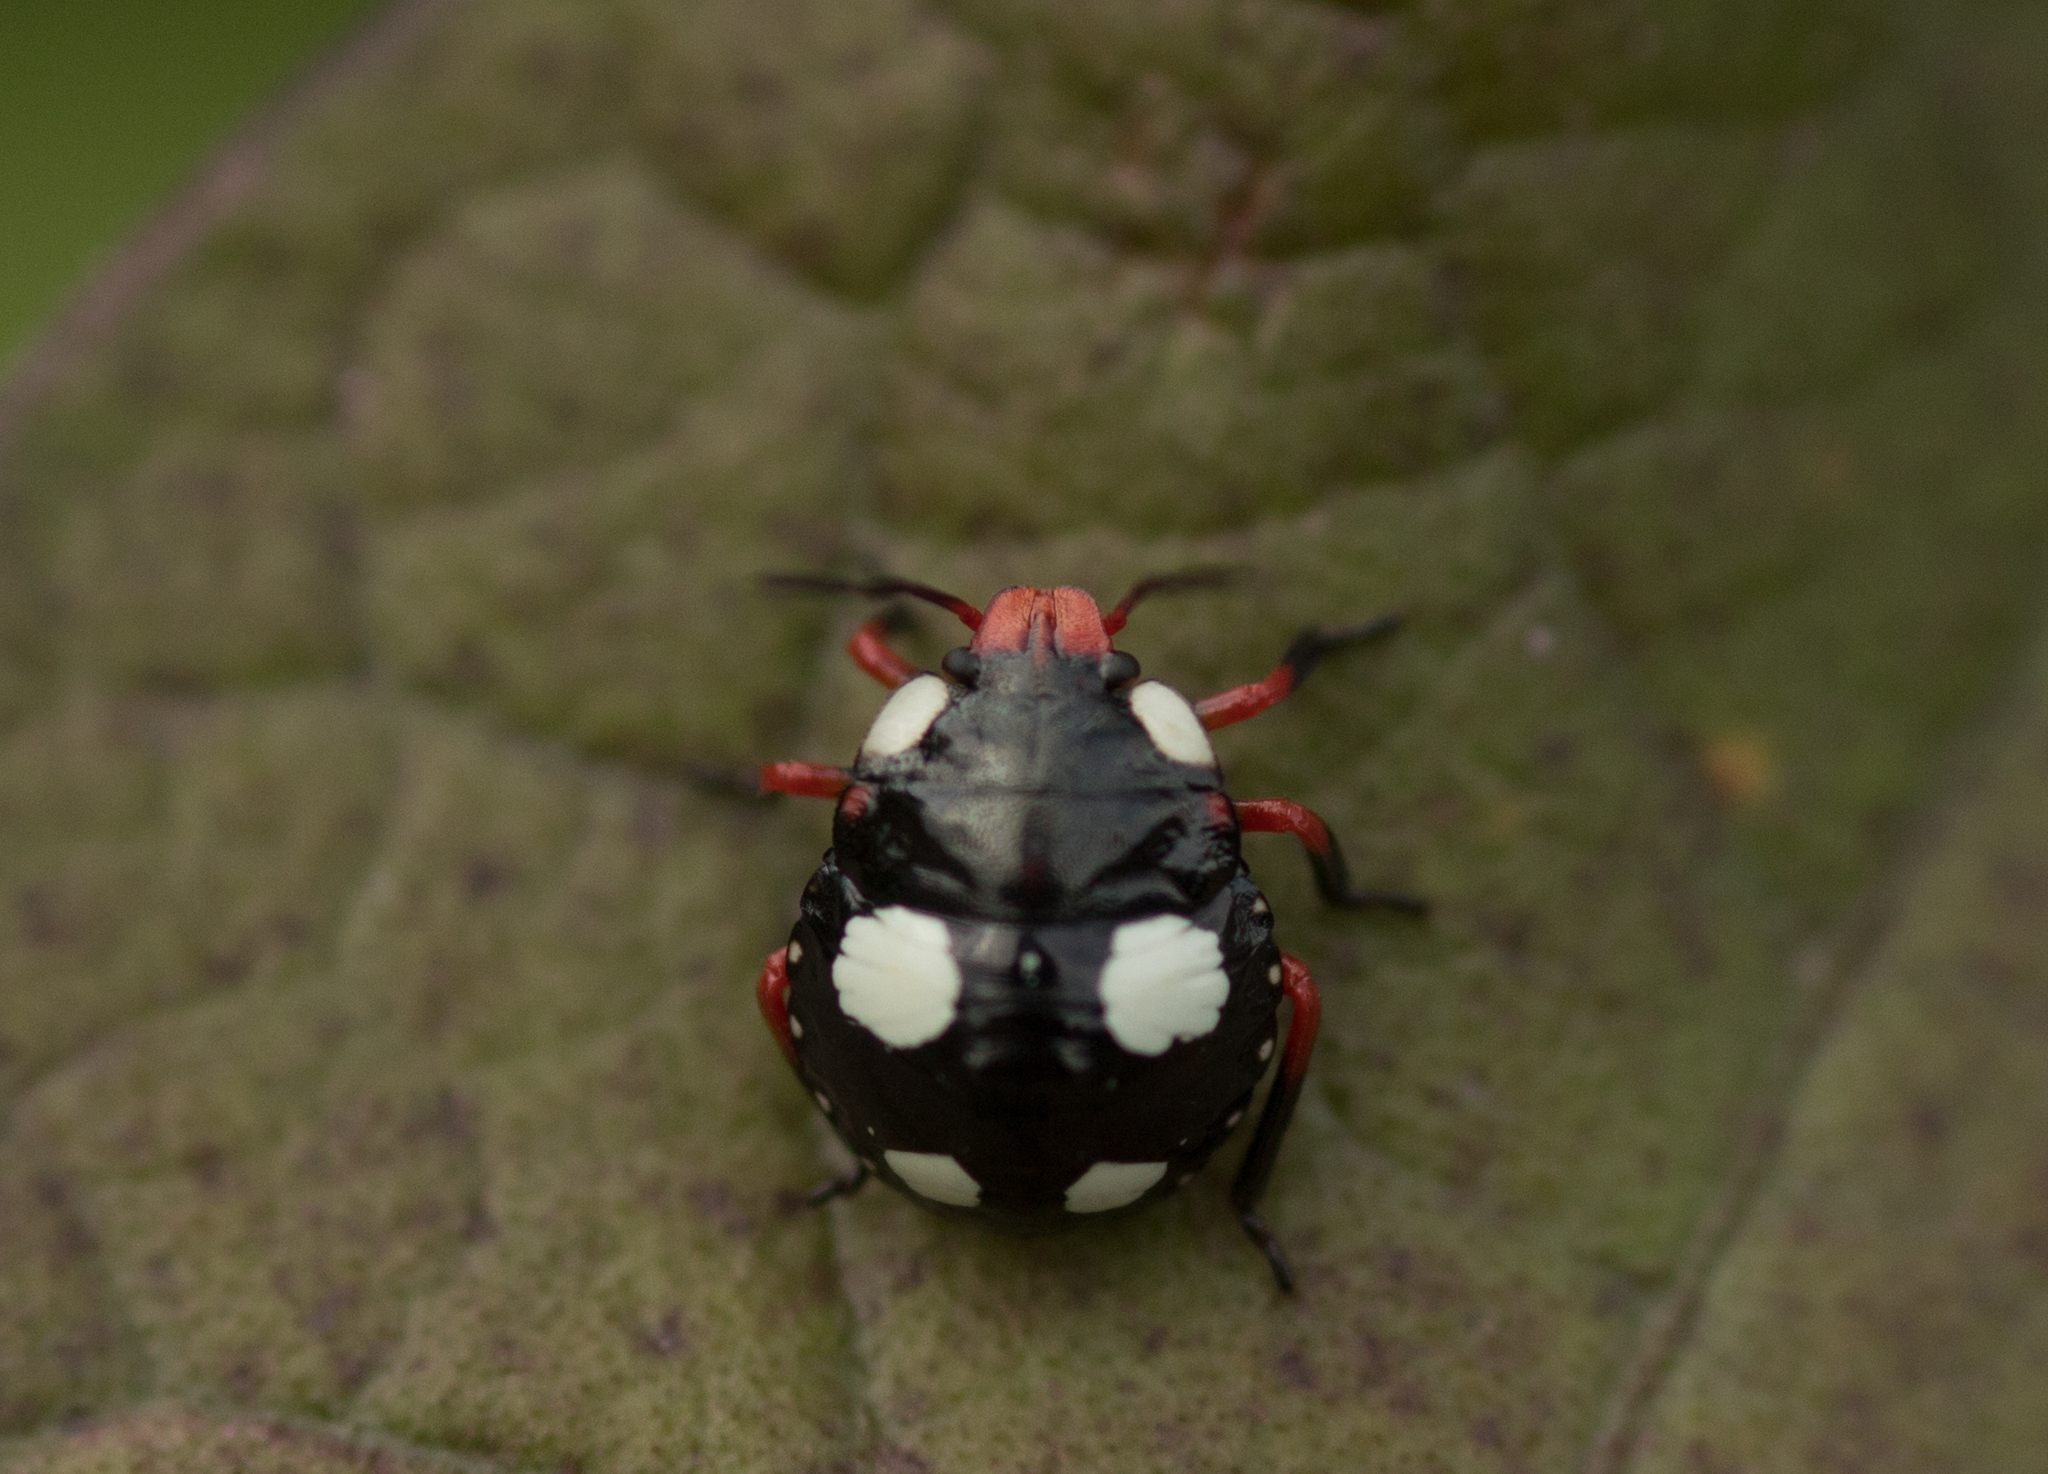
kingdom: Animalia
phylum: Arthropoda
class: Insecta
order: Hemiptera
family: Pentatomidae
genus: Chinavia
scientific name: Chinavia erythrocnemis
